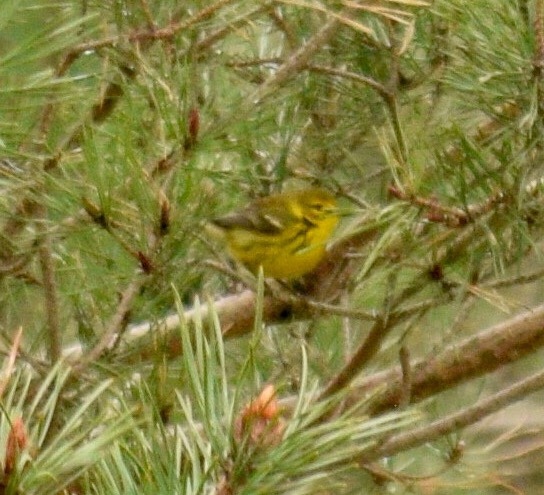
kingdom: Animalia
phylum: Chordata
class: Aves
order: Passeriformes
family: Parulidae
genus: Setophaga
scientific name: Setophaga discolor
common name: Prairie warbler
